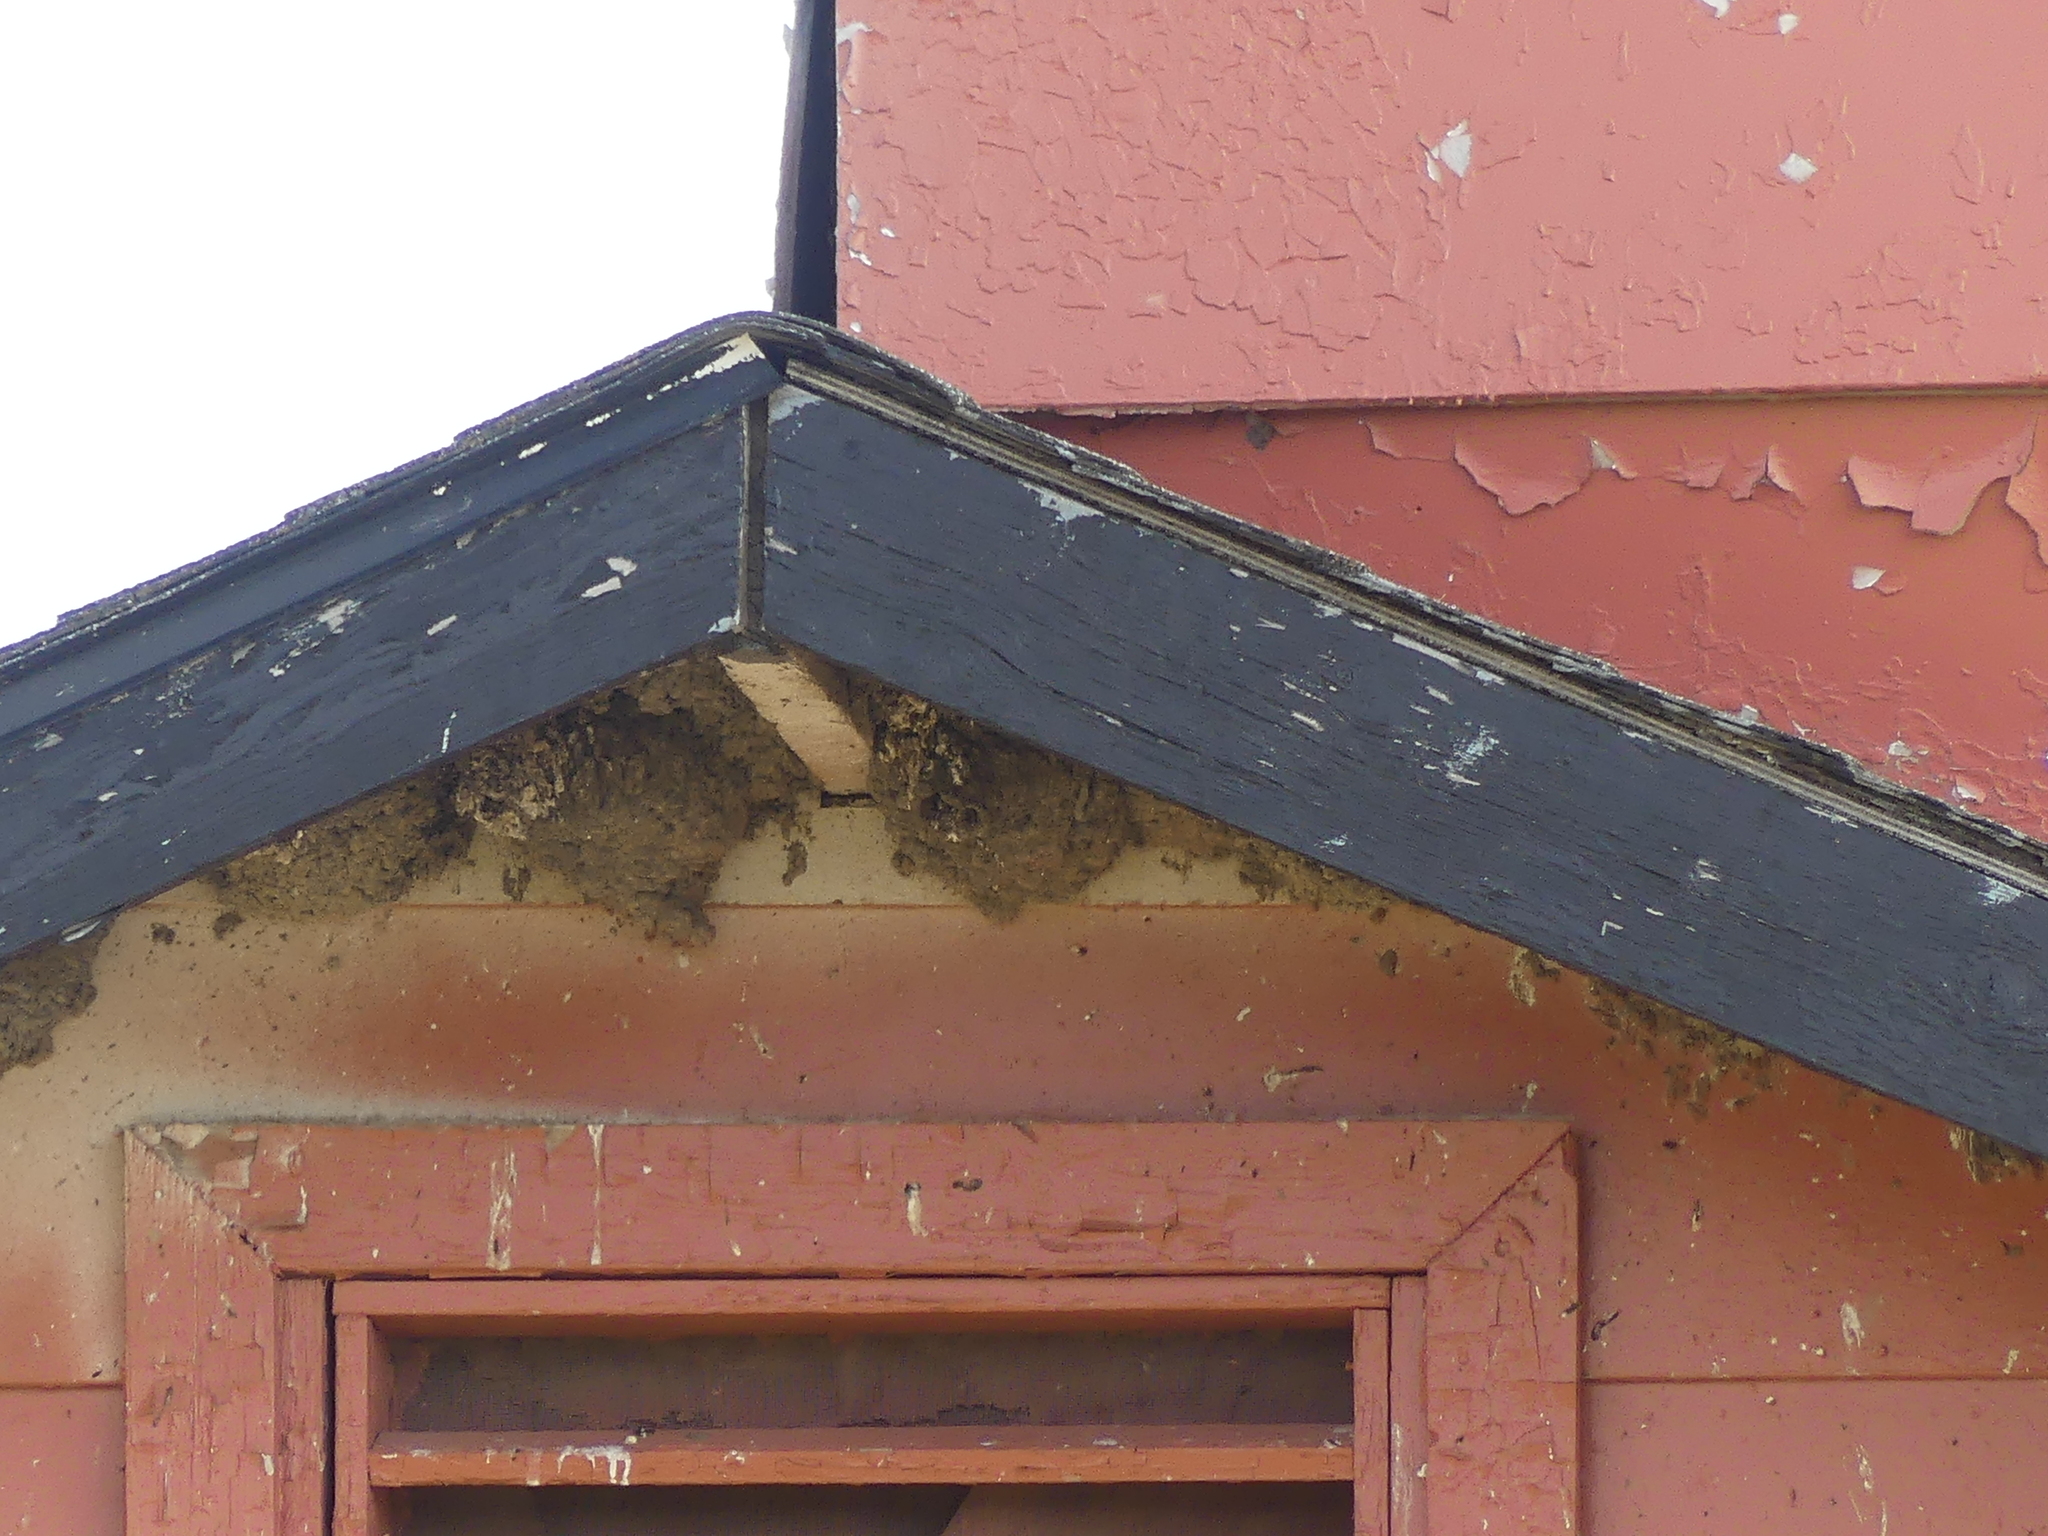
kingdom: Animalia
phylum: Chordata
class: Aves
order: Passeriformes
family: Hirundinidae
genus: Petrochelidon
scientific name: Petrochelidon pyrrhonota
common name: American cliff swallow
